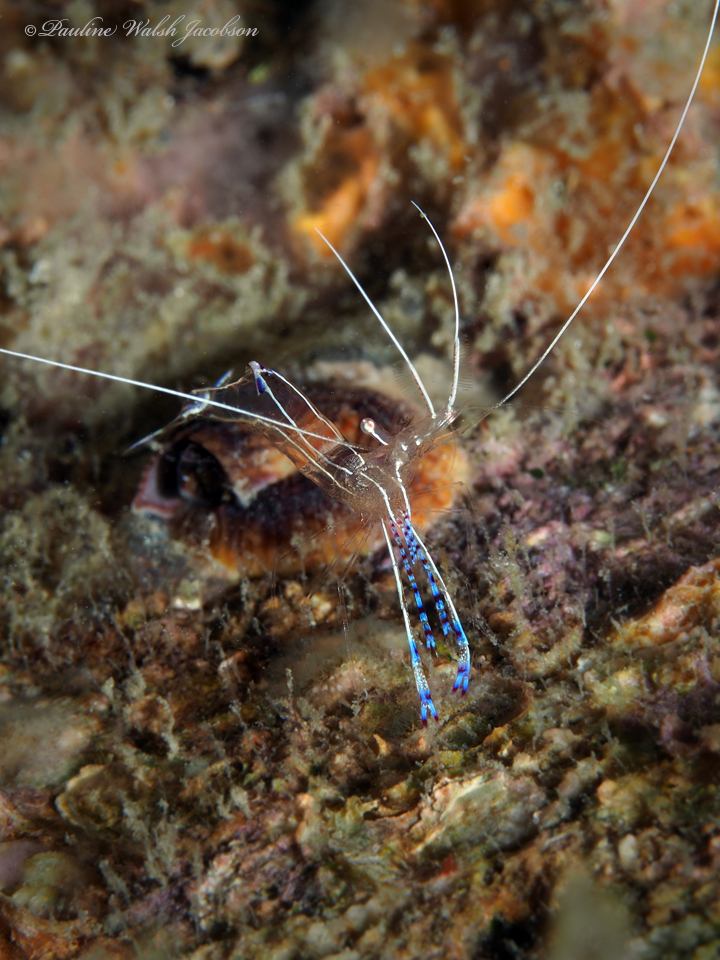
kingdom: Animalia
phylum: Arthropoda
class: Malacostraca
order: Decapoda
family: Palaemonidae
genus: Ancylomenes
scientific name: Ancylomenes pedersoni
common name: Pederson's cleaning shrimp
